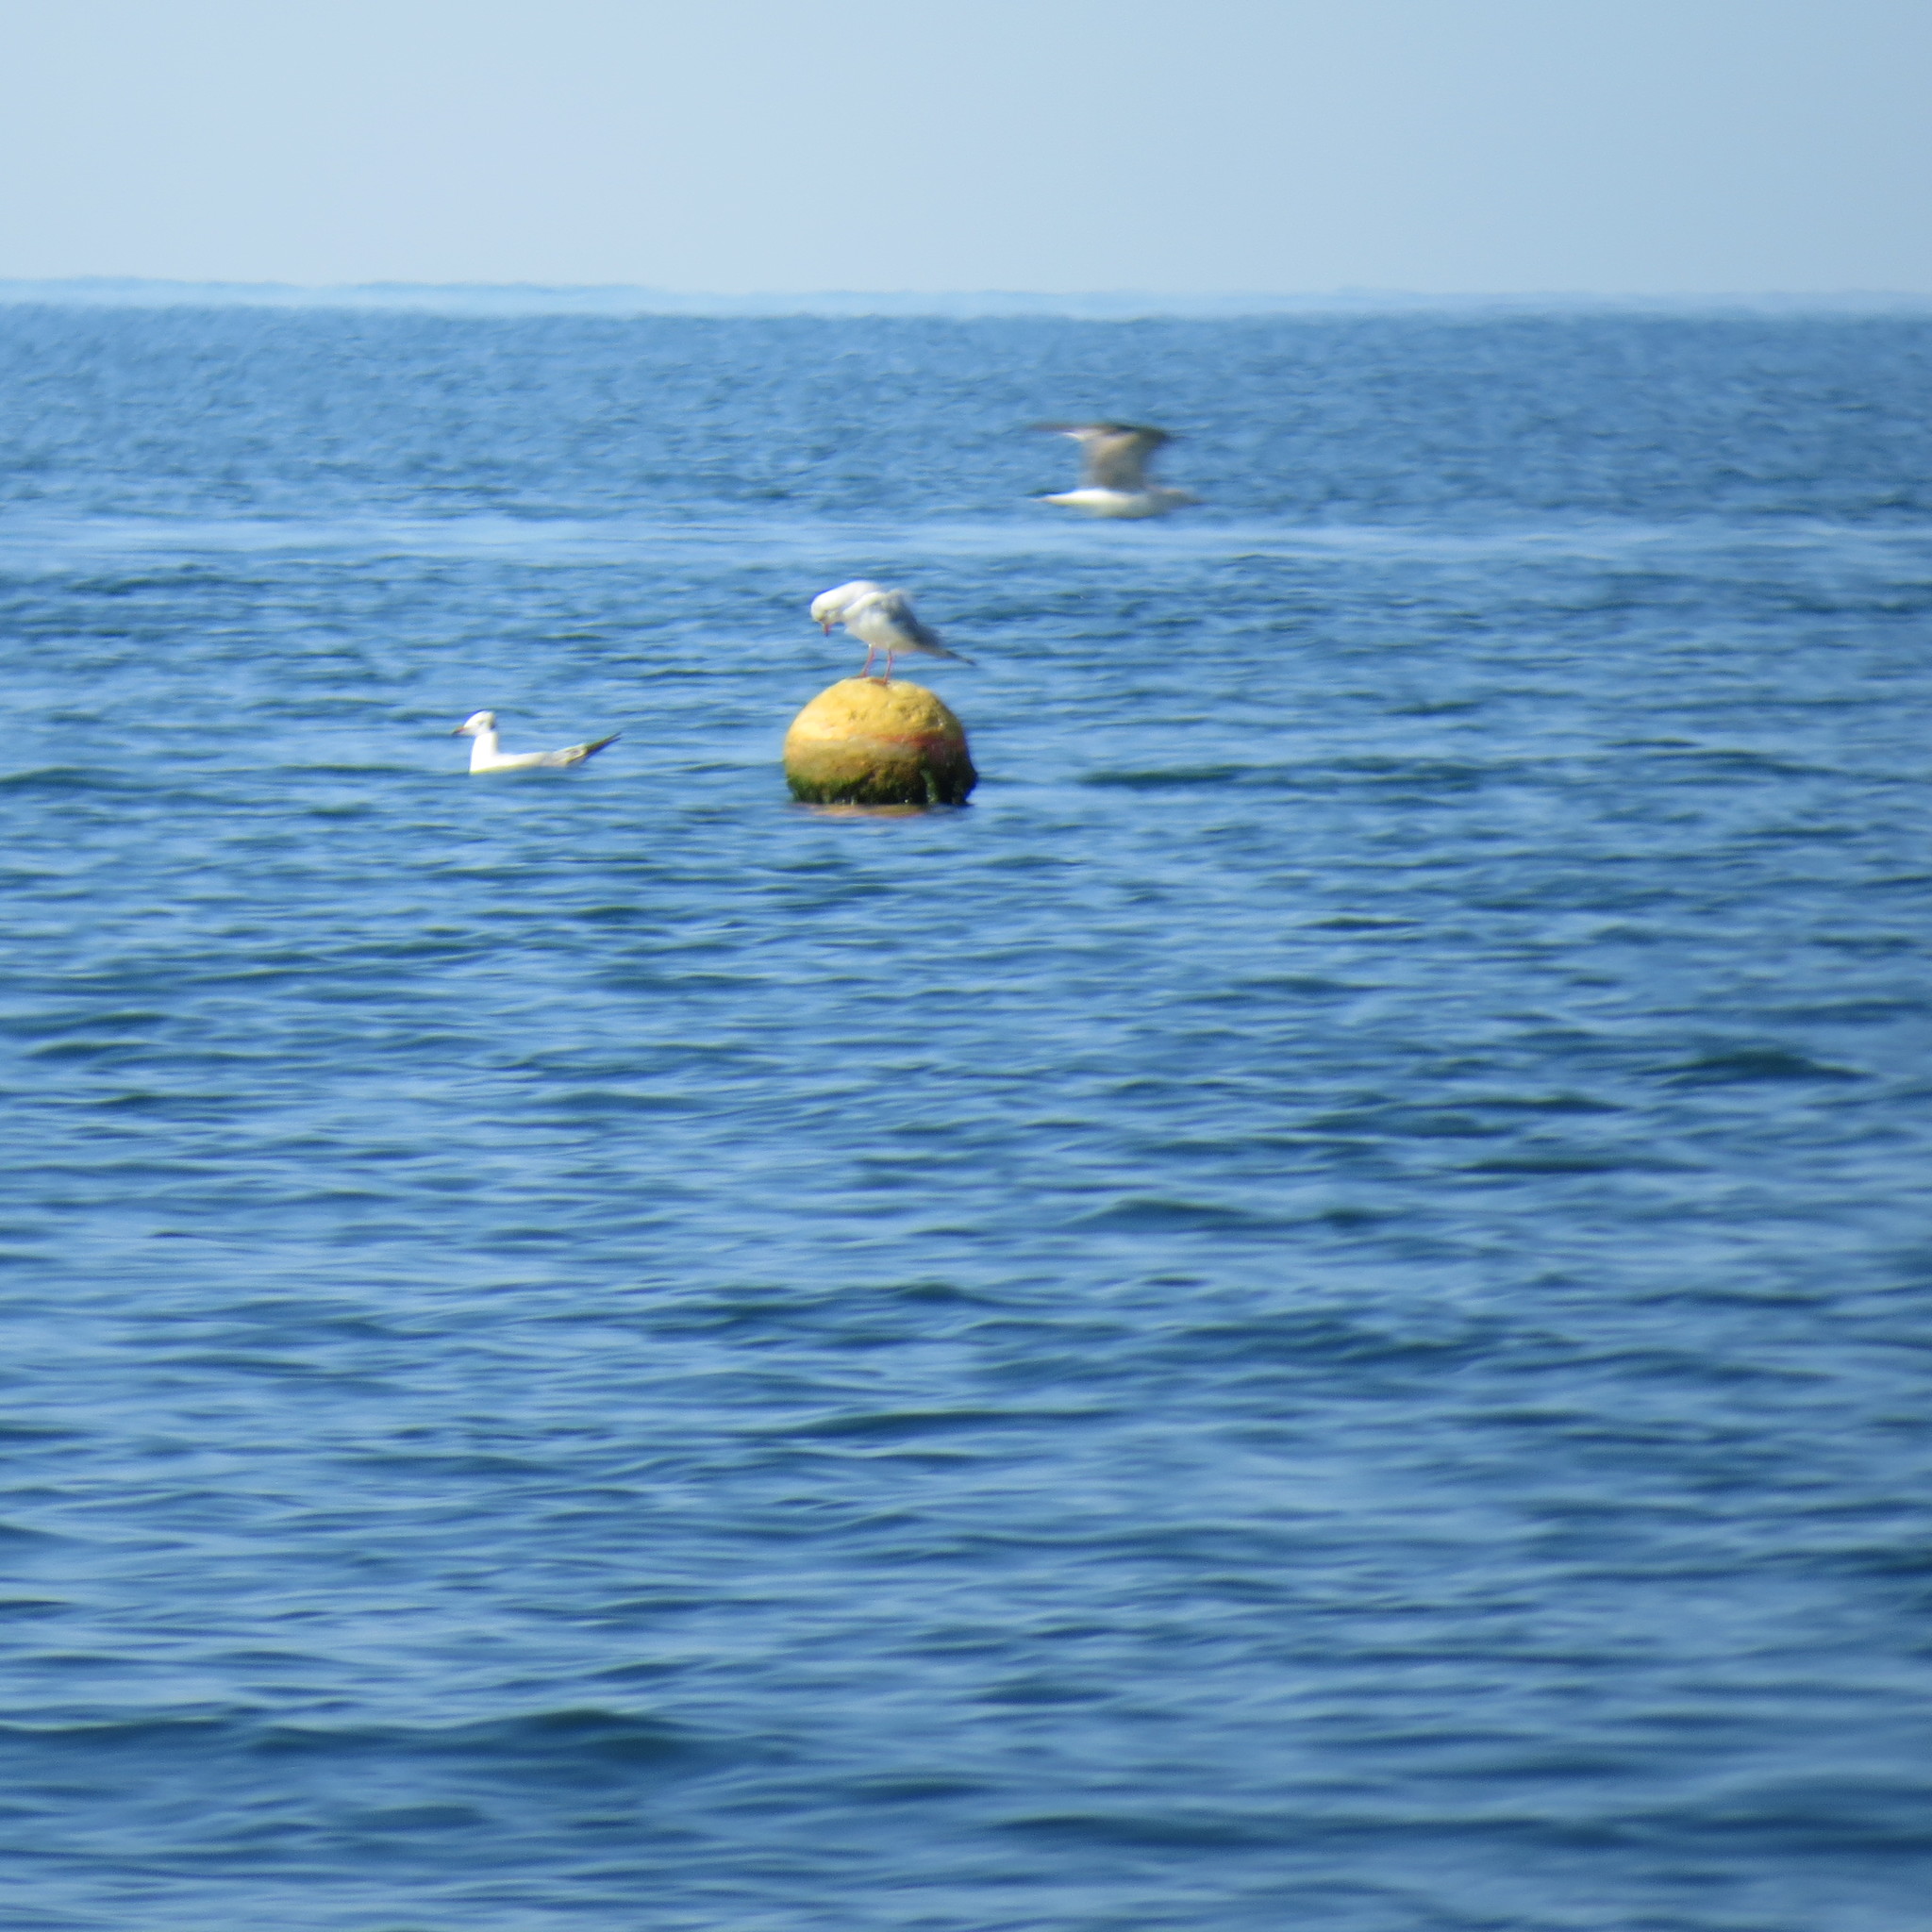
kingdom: Animalia
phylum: Chordata
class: Aves
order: Charadriiformes
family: Laridae
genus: Chroicocephalus
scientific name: Chroicocephalus ridibundus
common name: Black-headed gull
